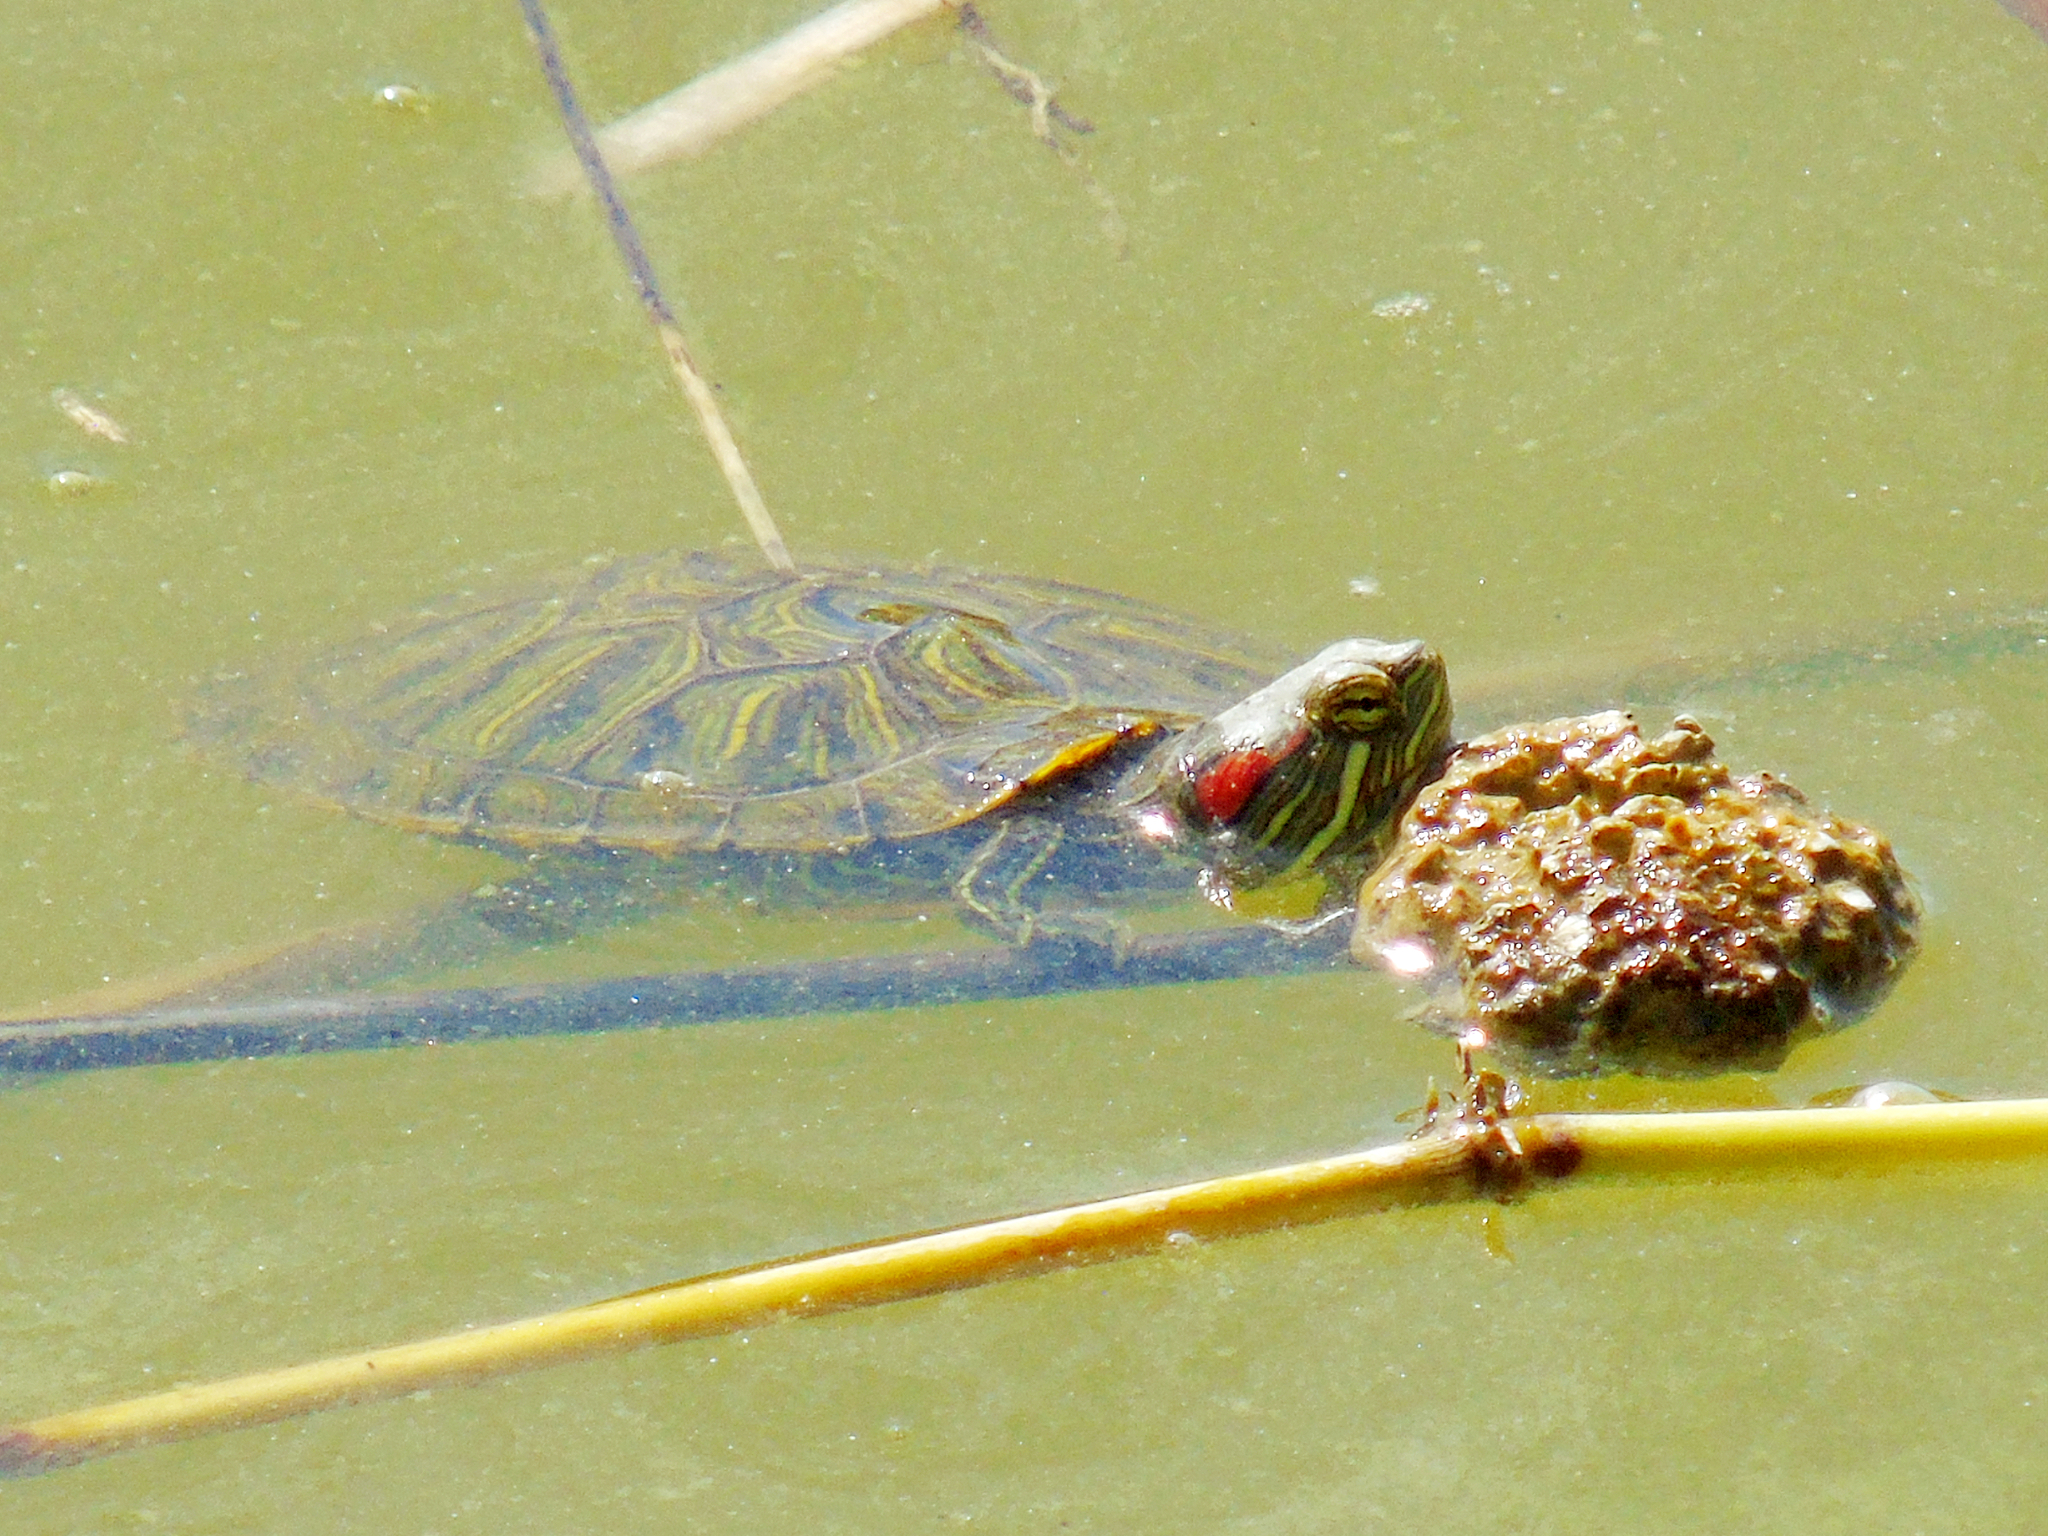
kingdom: Animalia
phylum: Chordata
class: Testudines
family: Emydidae
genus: Trachemys
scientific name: Trachemys scripta
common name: Slider
